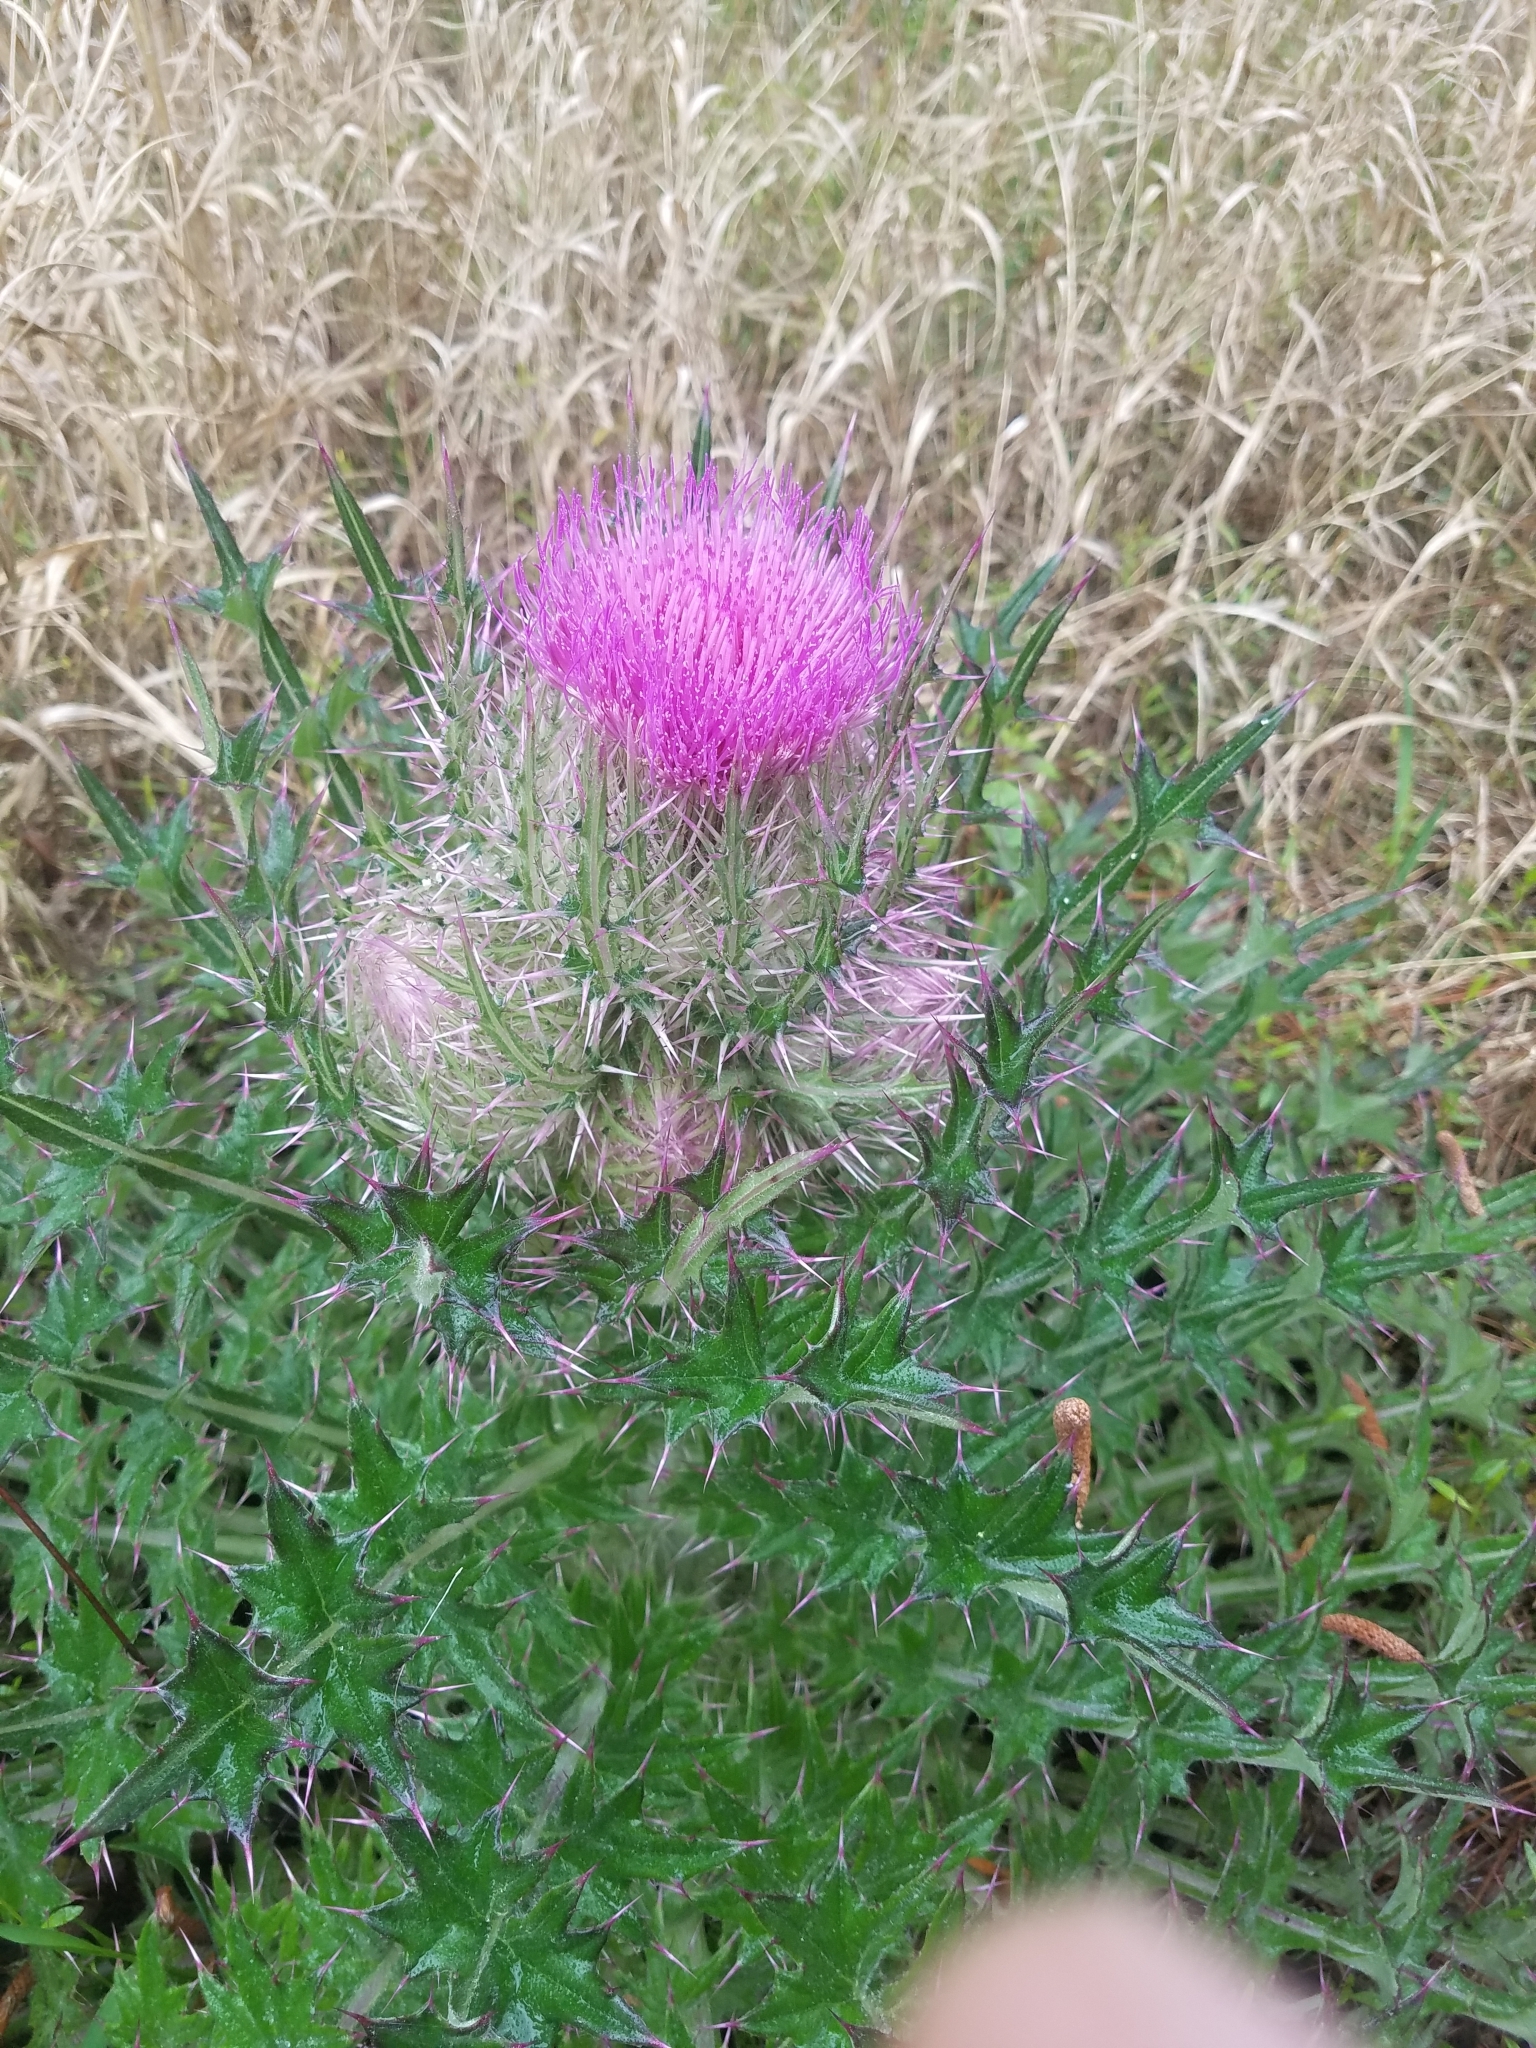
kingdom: Plantae
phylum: Tracheophyta
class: Magnoliopsida
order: Asterales
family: Asteraceae
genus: Cirsium
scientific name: Cirsium horridulum
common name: Bristly thistle
